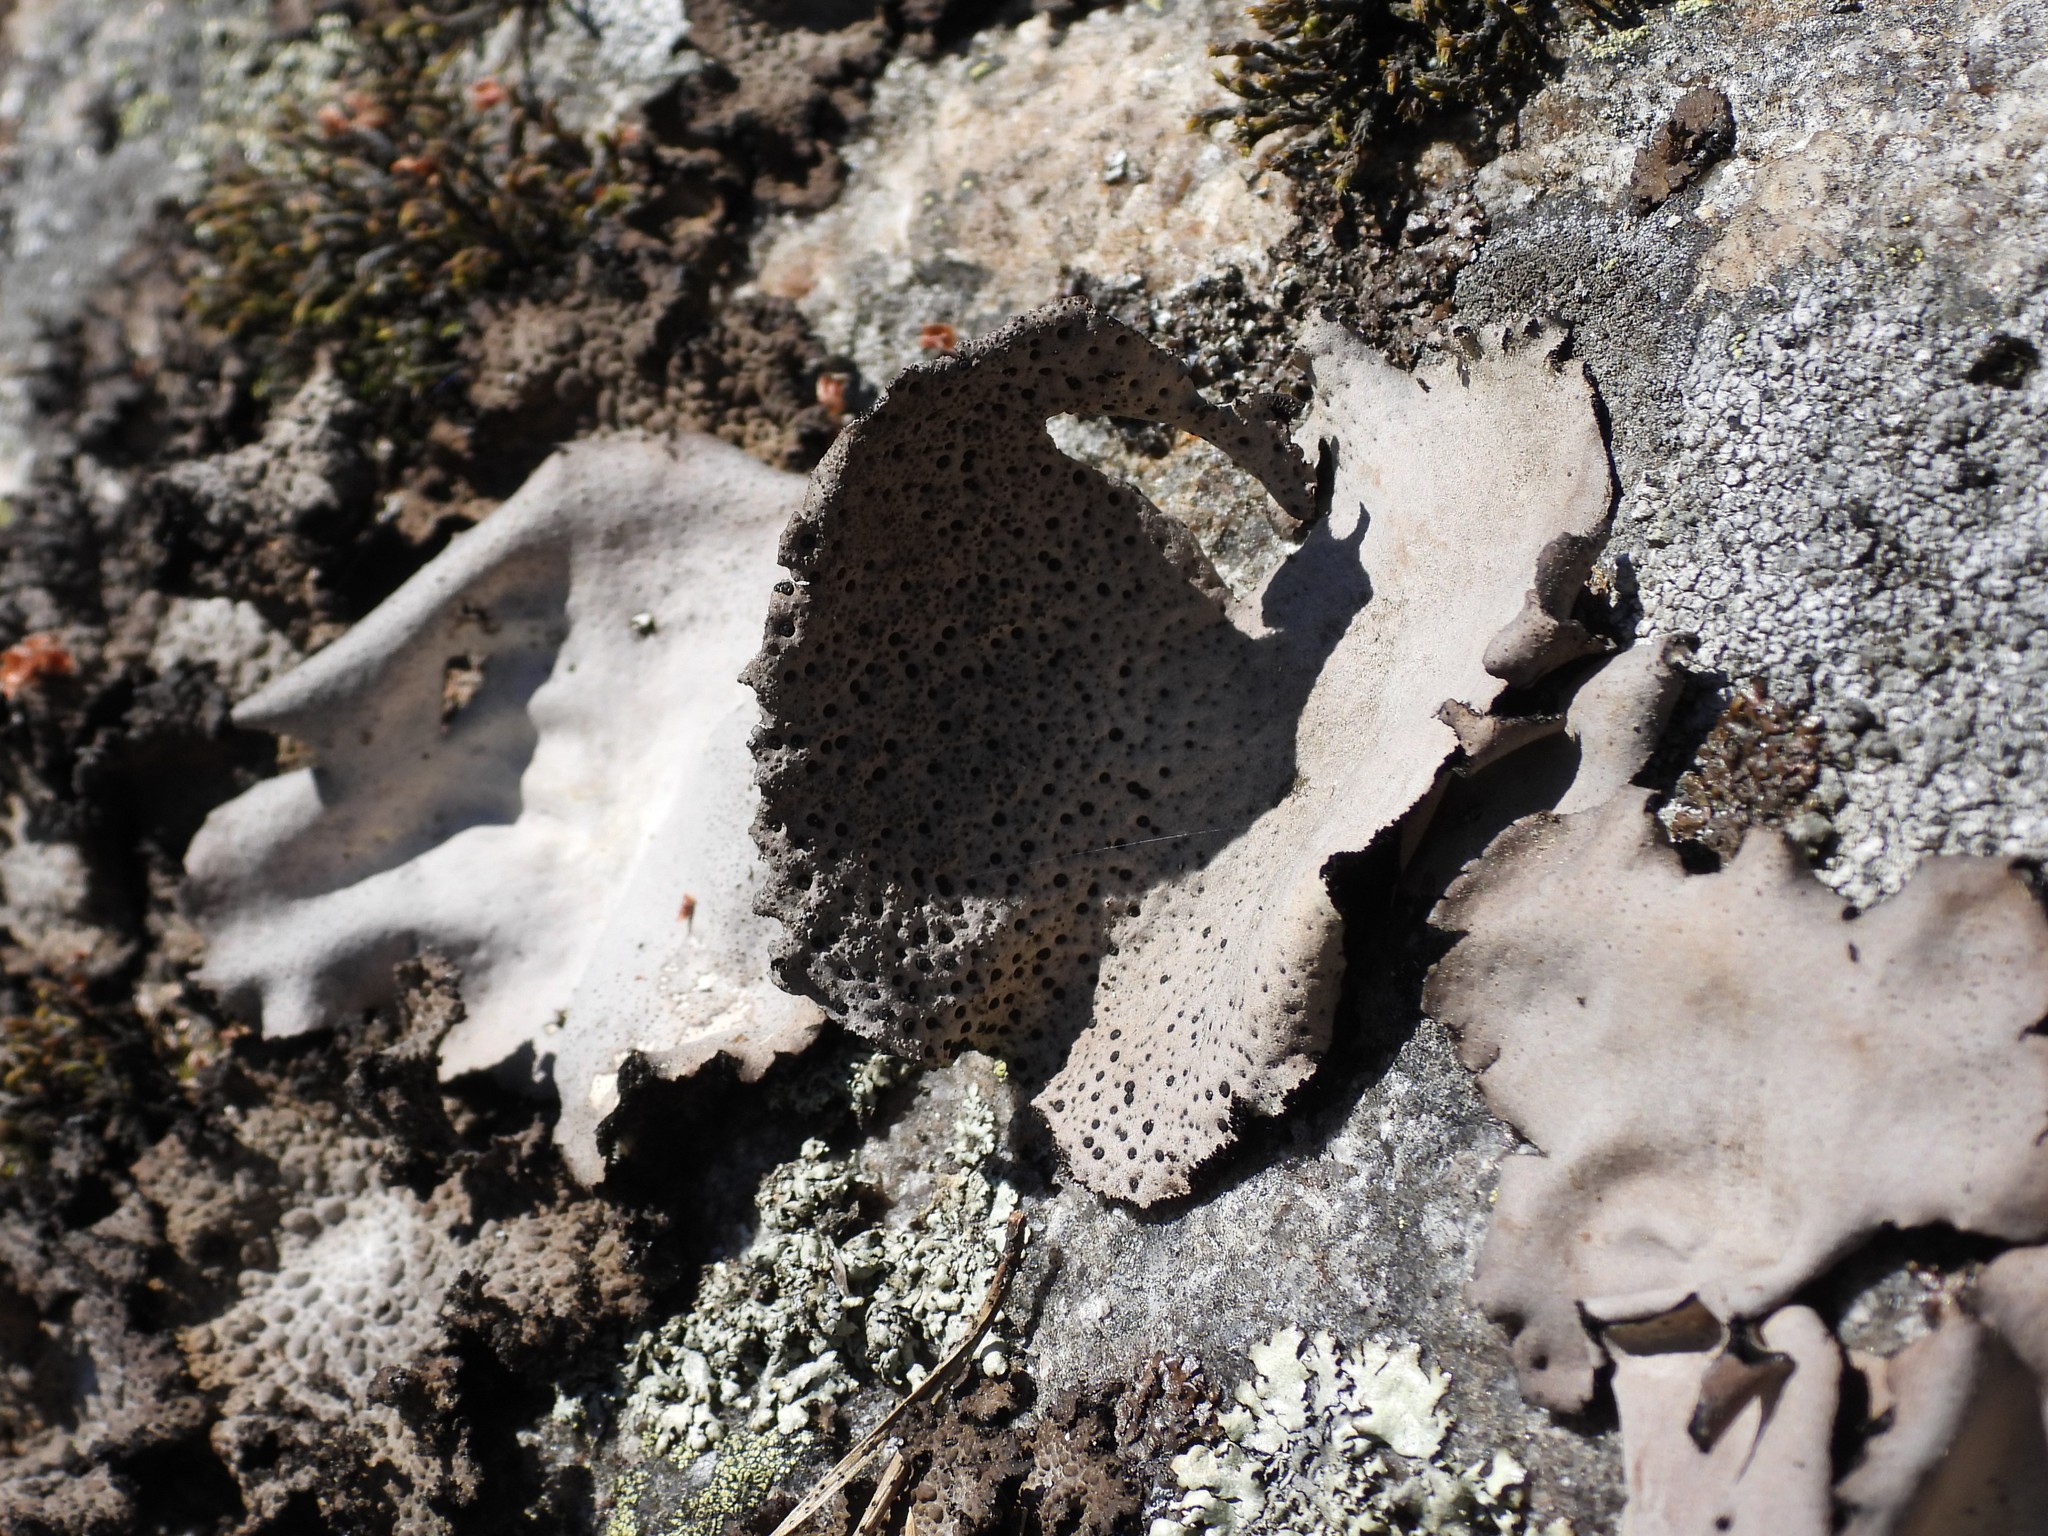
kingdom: Fungi
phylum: Ascomycota
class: Lecanoromycetes
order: Umbilicariales
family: Umbilicariaceae
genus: Umbilicaria
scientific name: Umbilicaria spodochroa
